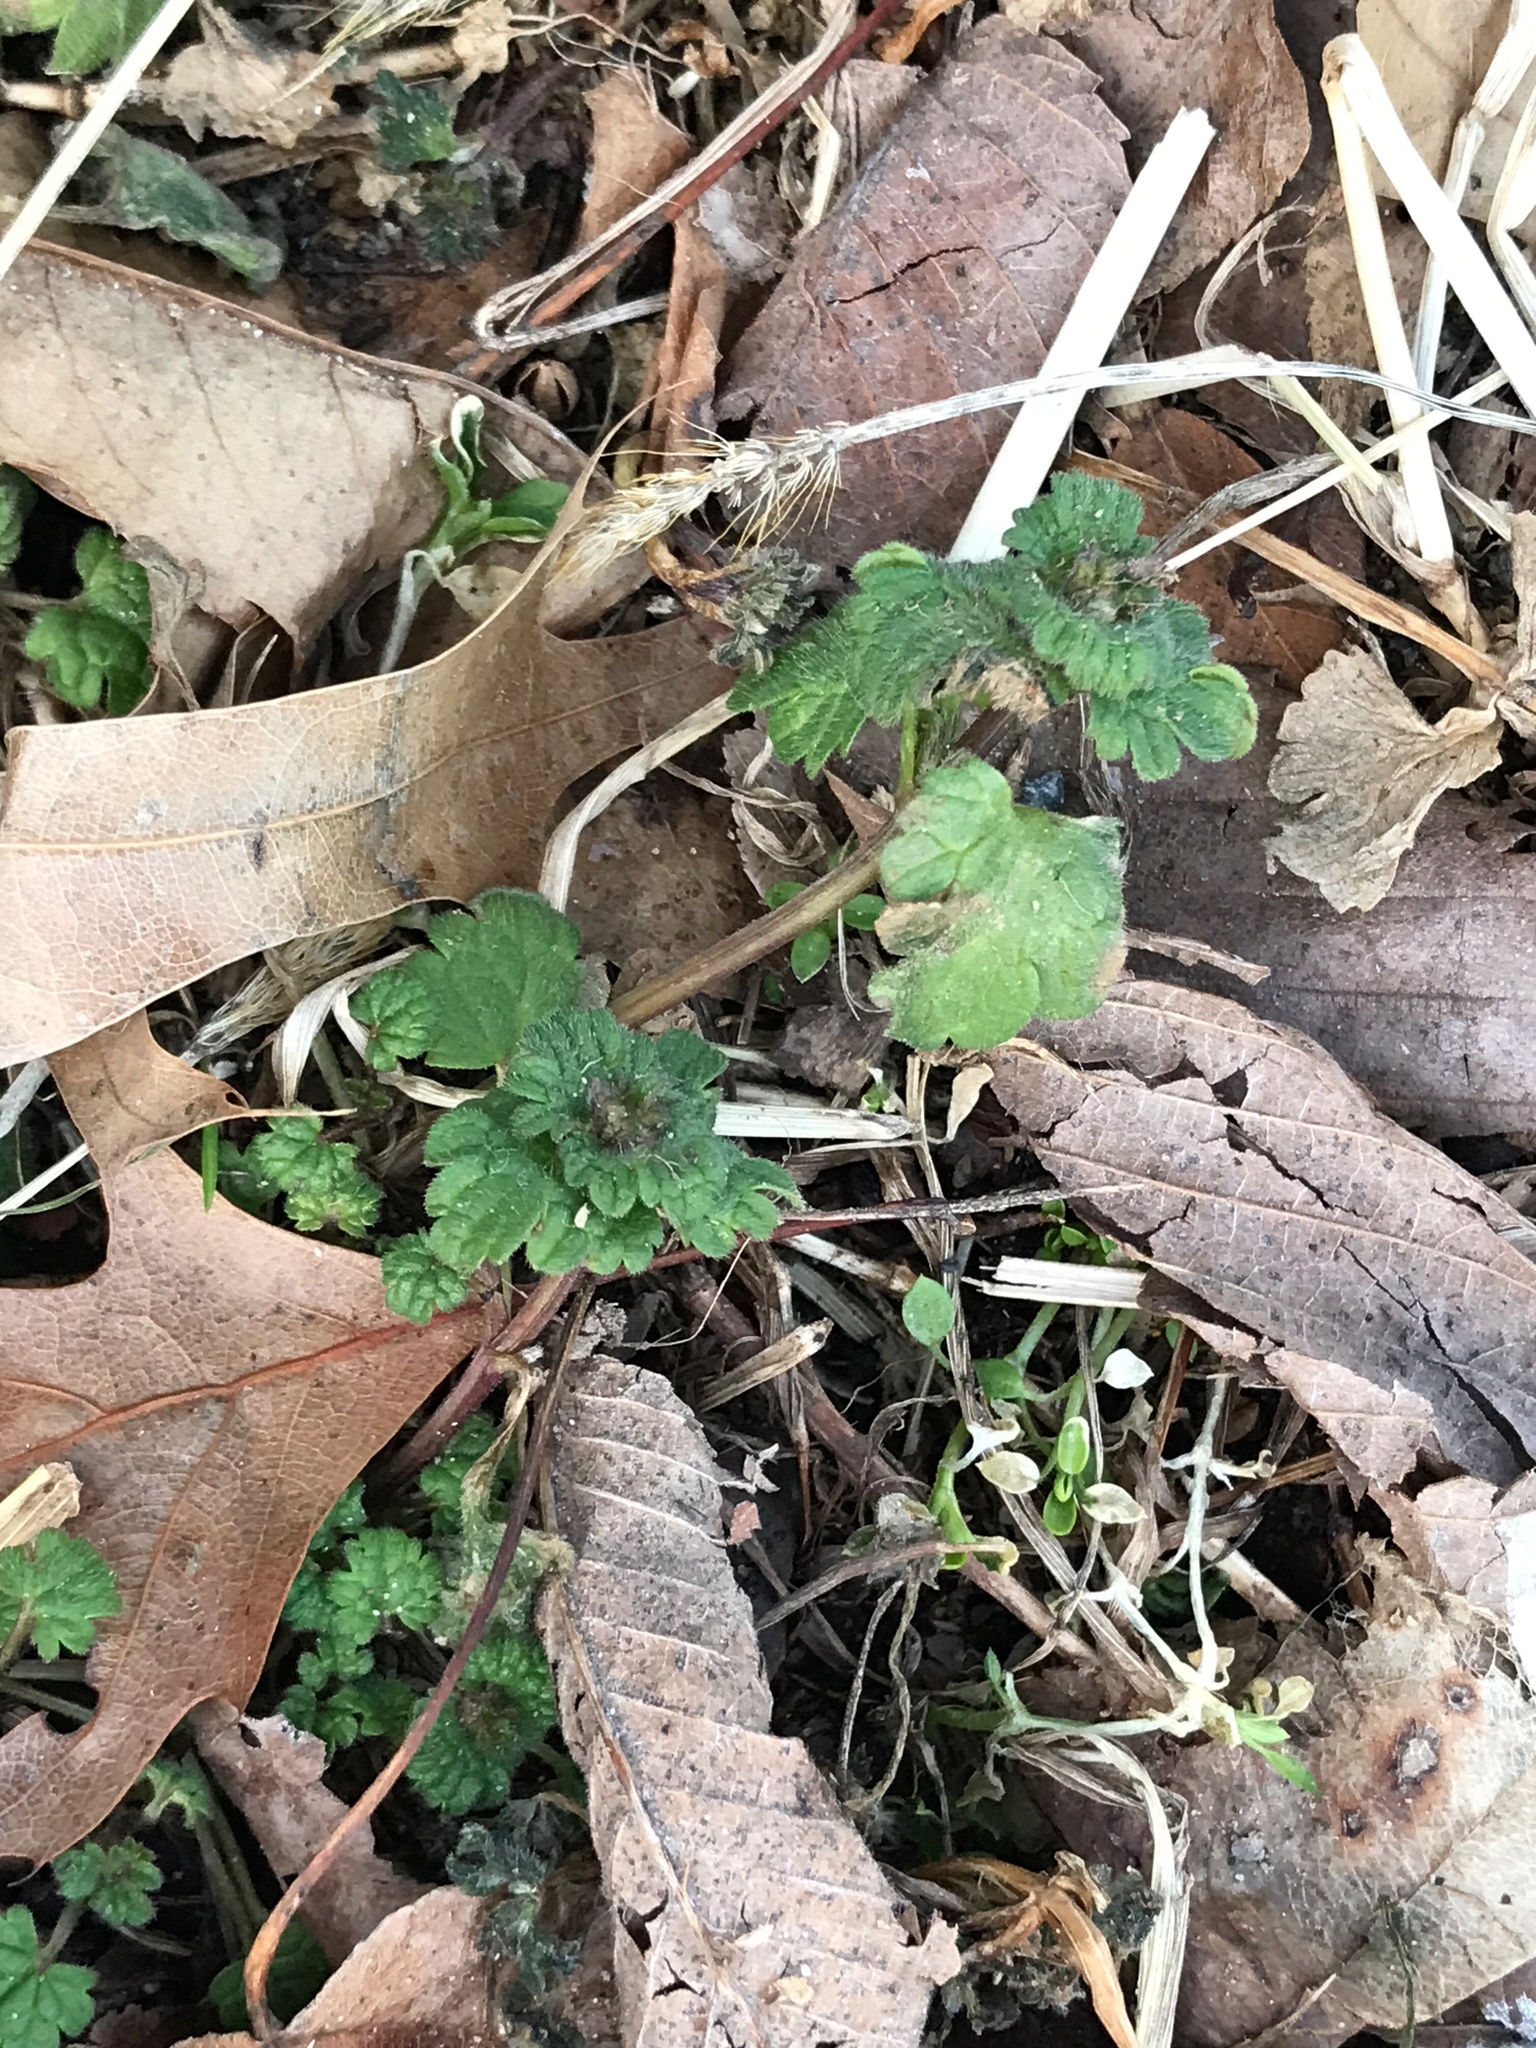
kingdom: Plantae
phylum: Tracheophyta
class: Magnoliopsida
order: Lamiales
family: Lamiaceae
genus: Lamium
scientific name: Lamium amplexicaule
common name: Henbit dead-nettle
